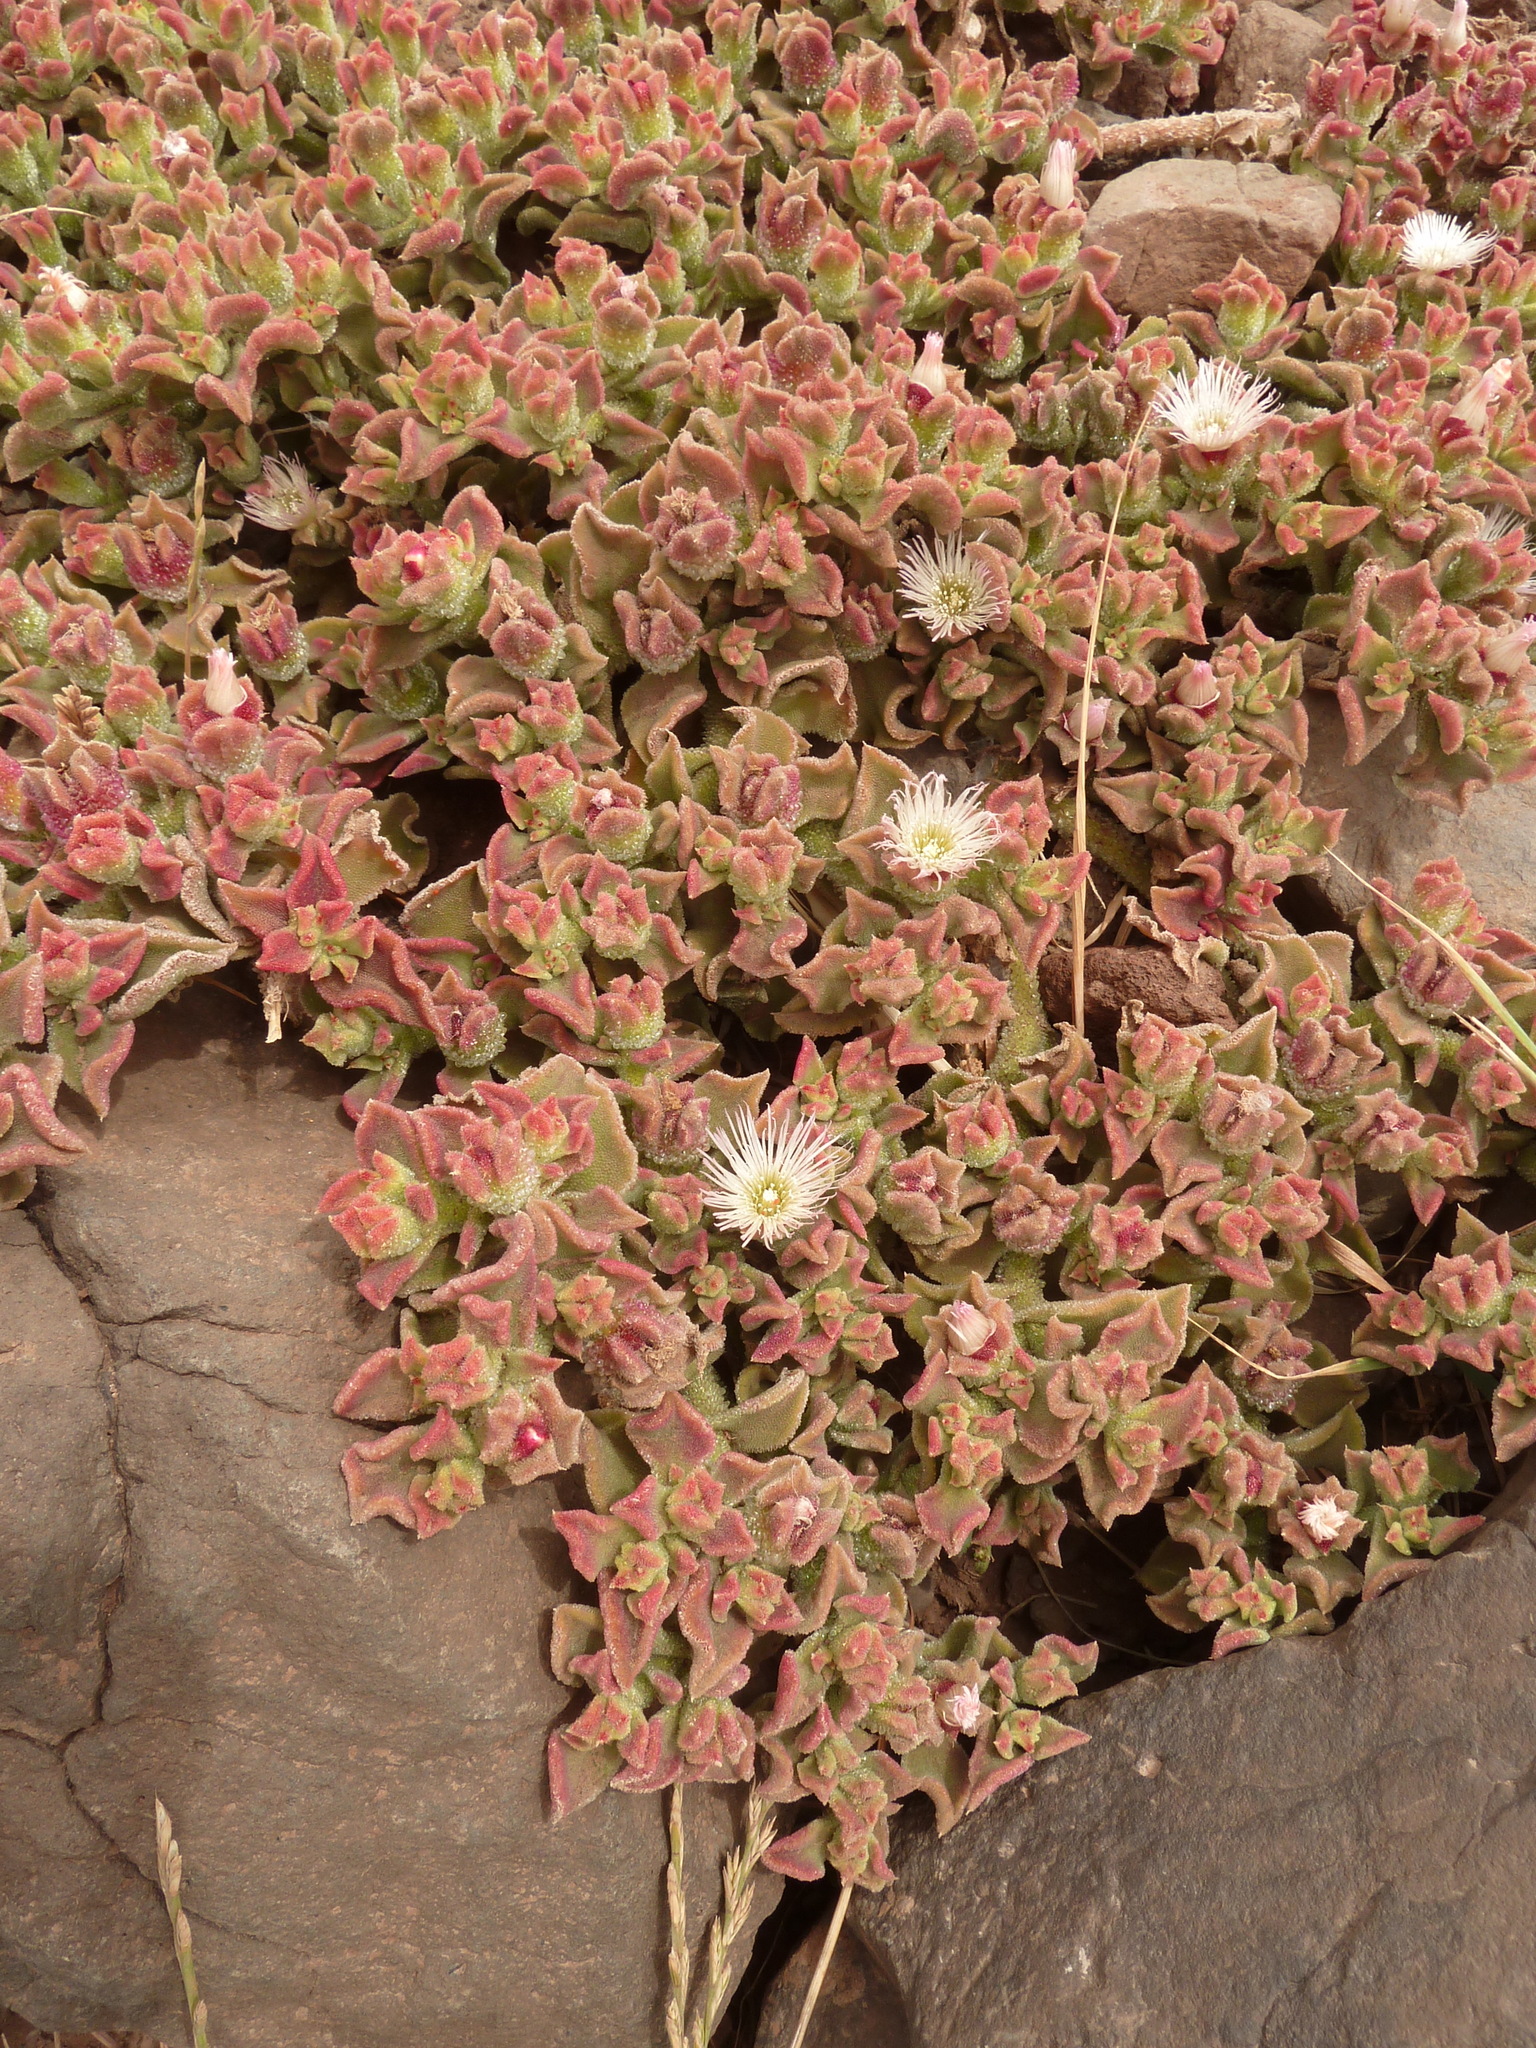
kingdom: Plantae
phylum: Tracheophyta
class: Magnoliopsida
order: Caryophyllales
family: Aizoaceae
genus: Mesembryanthemum
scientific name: Mesembryanthemum crystallinum
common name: Common iceplant
